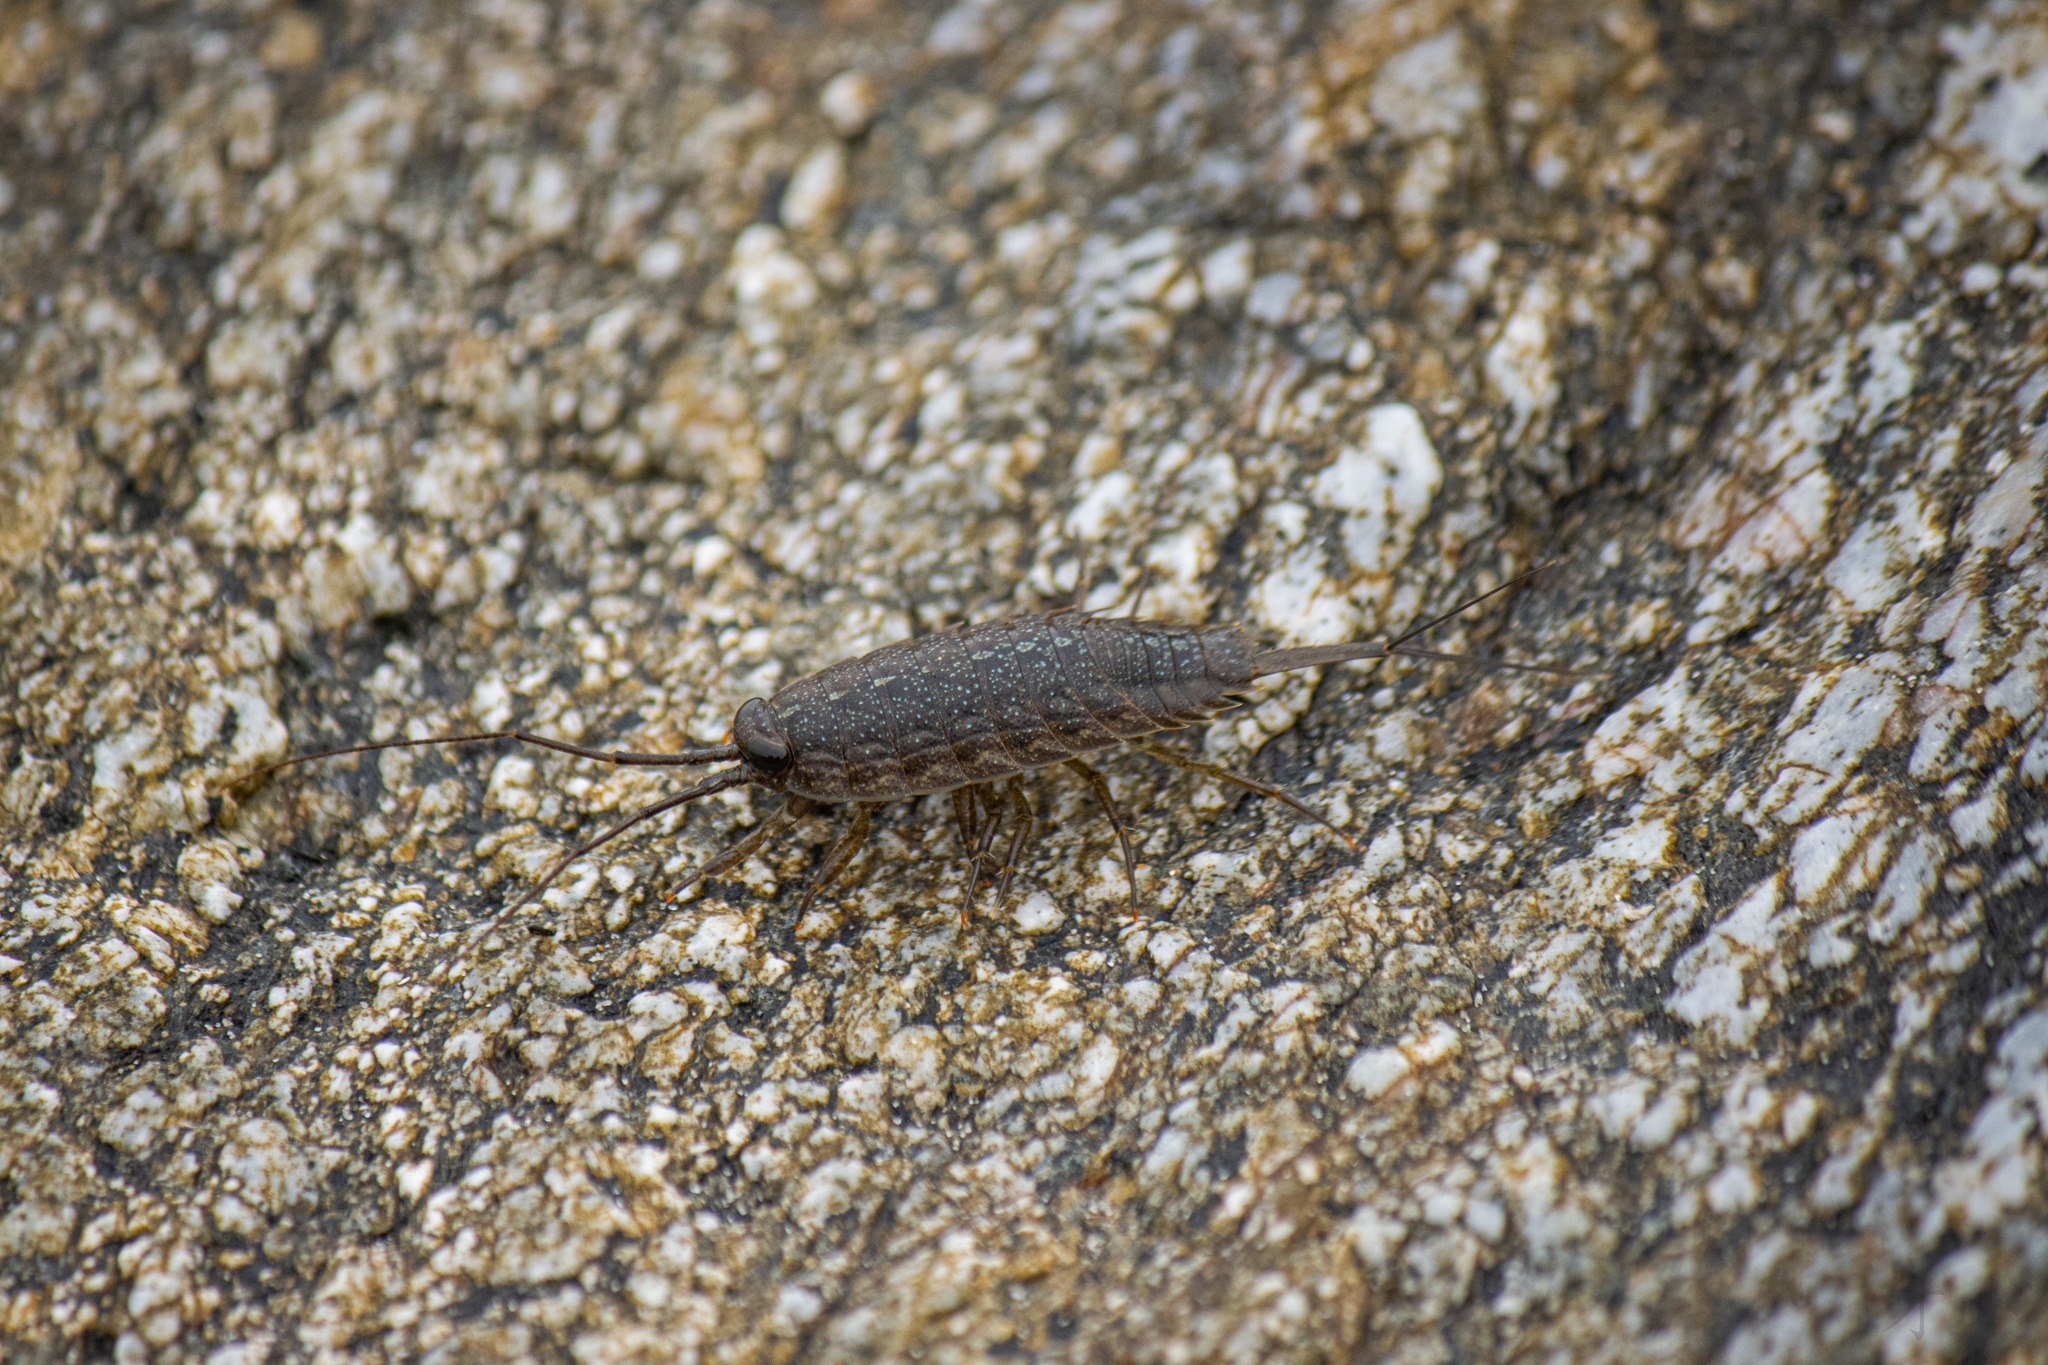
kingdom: Animalia
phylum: Arthropoda
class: Malacostraca
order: Isopoda
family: Ligiidae
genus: Ligia
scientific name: Ligia exotica
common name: Wharf roach
